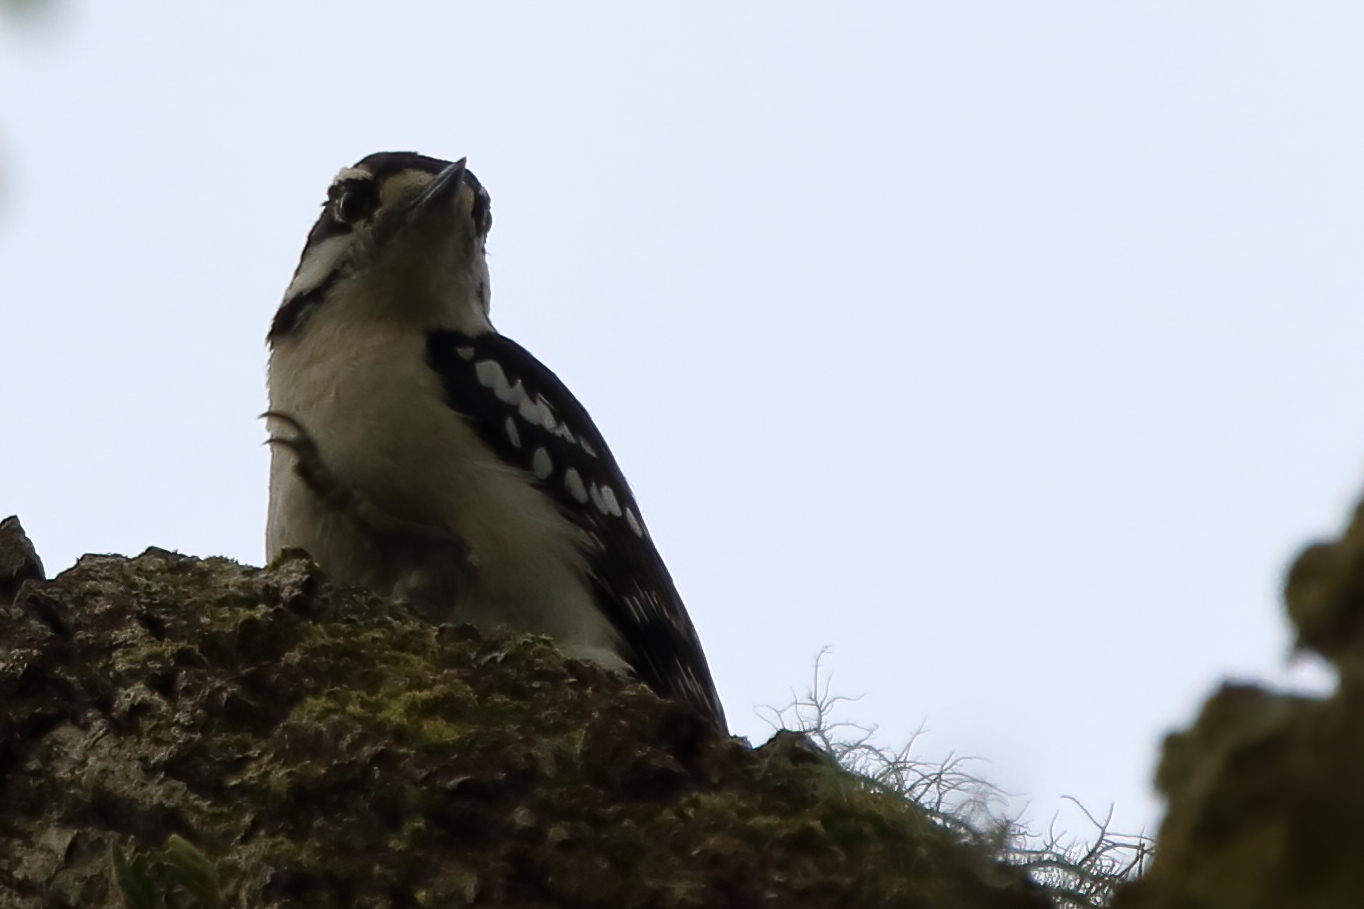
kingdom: Animalia
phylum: Chordata
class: Aves
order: Piciformes
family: Picidae
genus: Dryobates
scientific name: Dryobates pubescens
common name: Downy woodpecker
